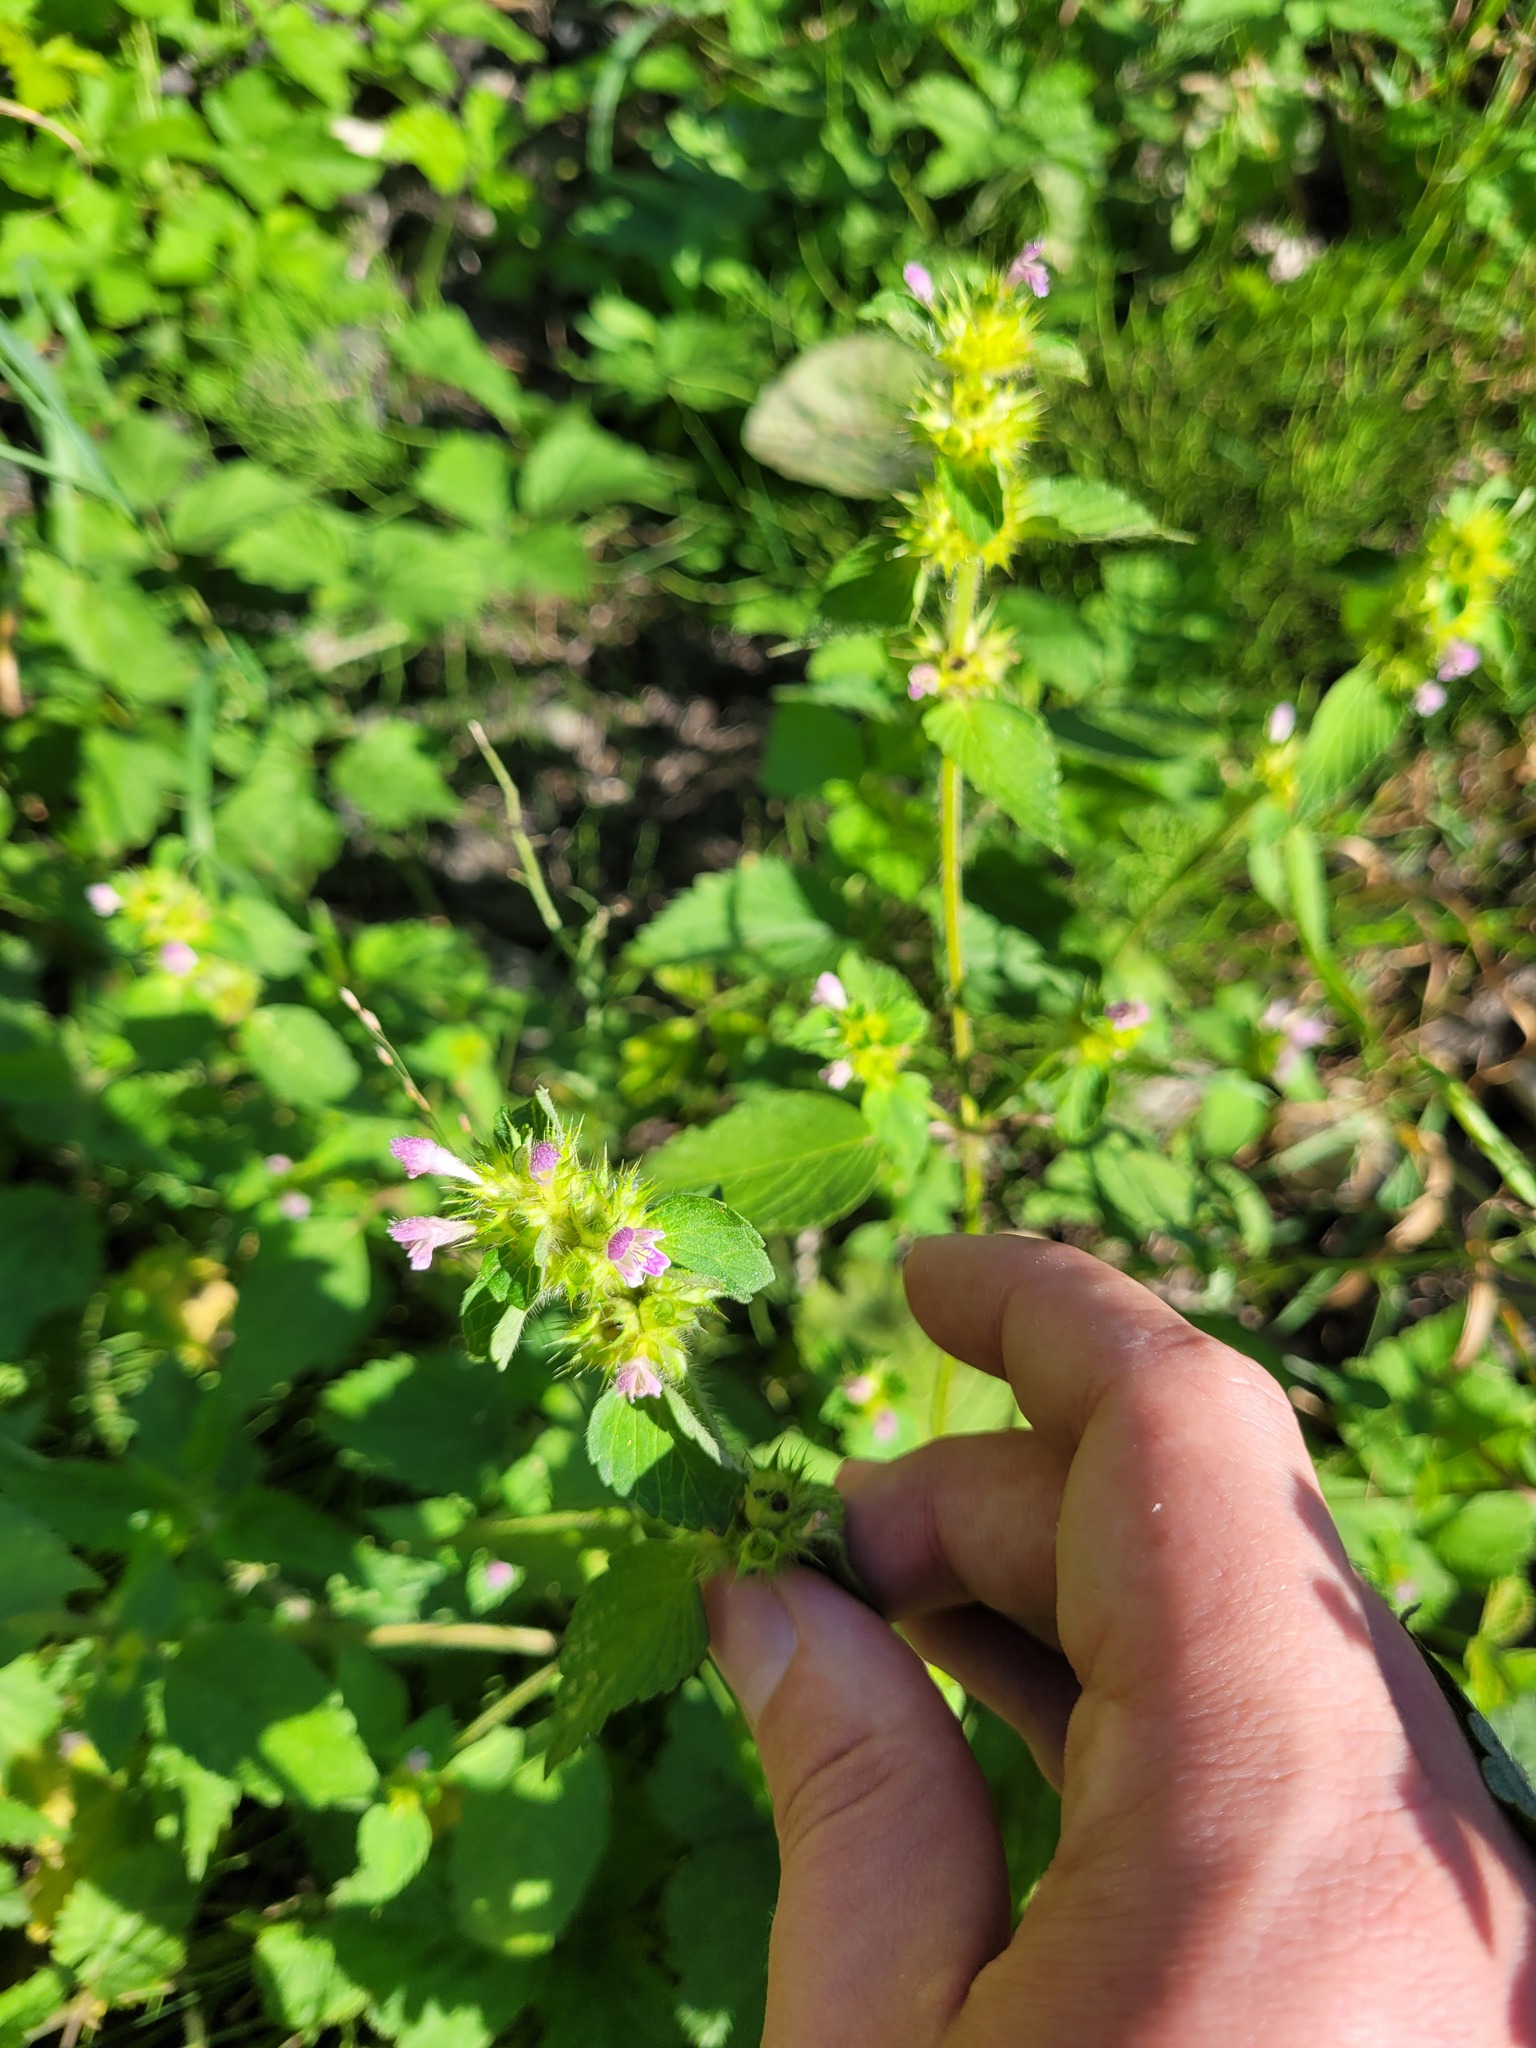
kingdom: Plantae
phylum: Tracheophyta
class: Magnoliopsida
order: Lamiales
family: Lamiaceae
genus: Galeopsis
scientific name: Galeopsis bifida
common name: Bifid hemp-nettle
